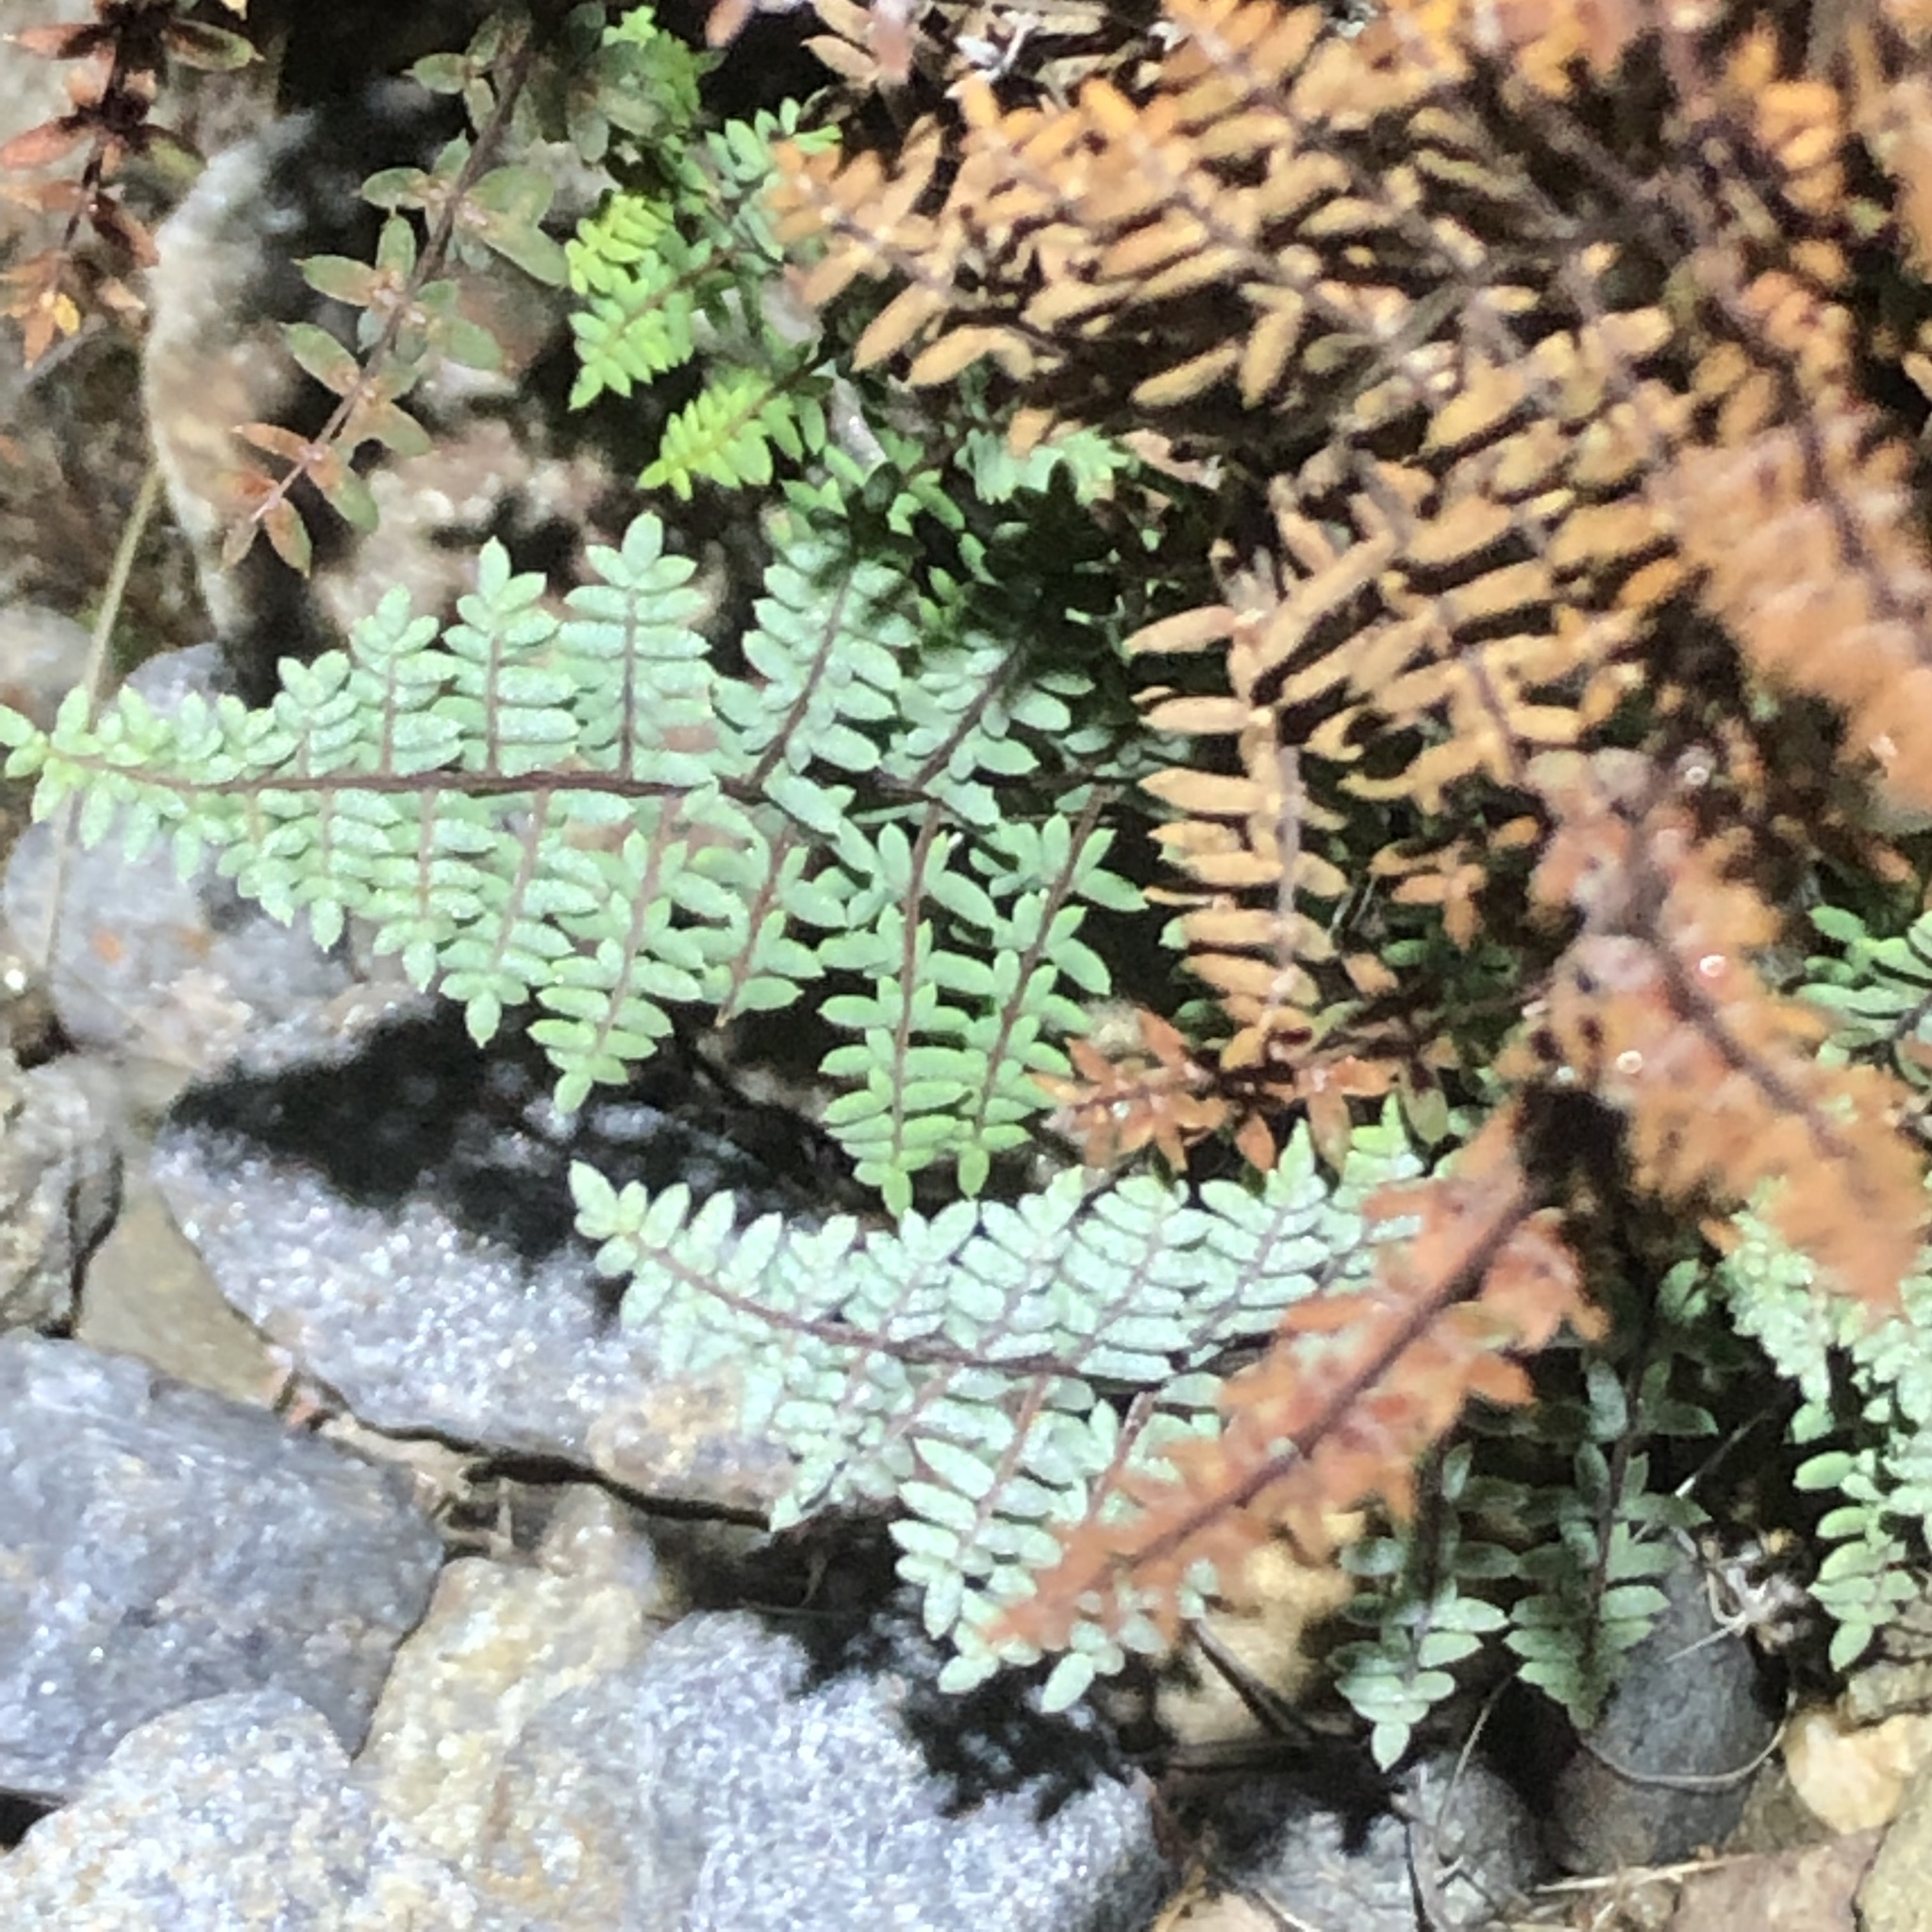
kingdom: Plantae
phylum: Tracheophyta
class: Polypodiopsida
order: Polypodiales
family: Pteridaceae
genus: Pellaea
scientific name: Pellaea mucronata
